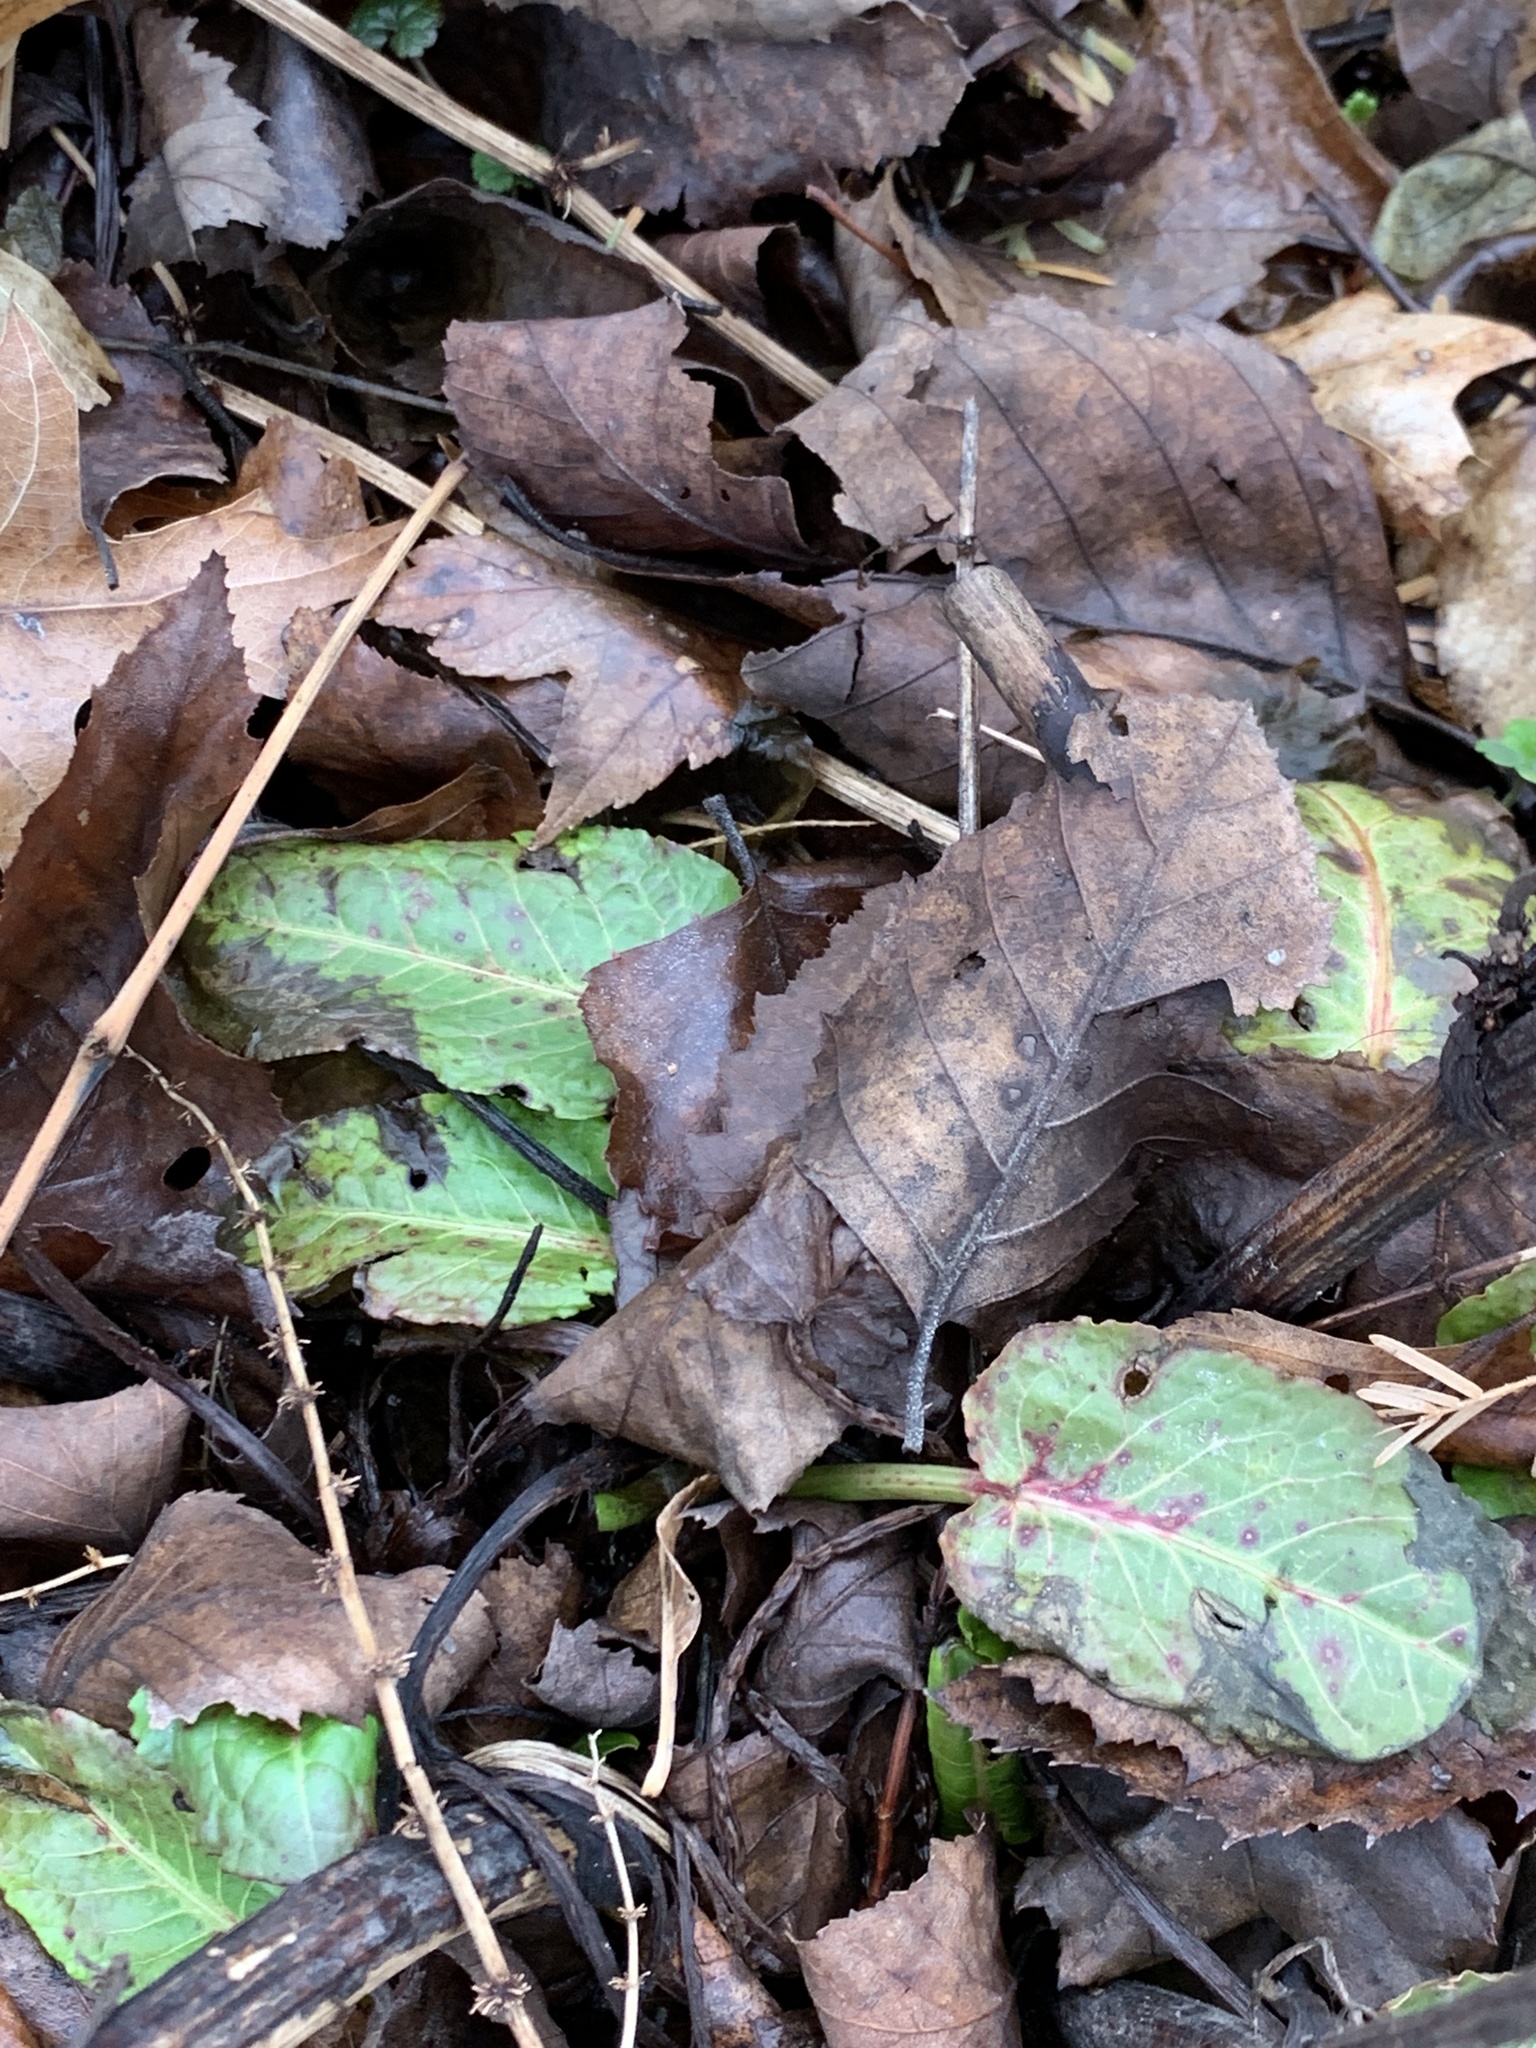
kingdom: Plantae
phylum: Tracheophyta
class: Magnoliopsida
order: Caryophyllales
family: Polygonaceae
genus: Rumex
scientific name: Rumex obtusifolius
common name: Bitter dock
